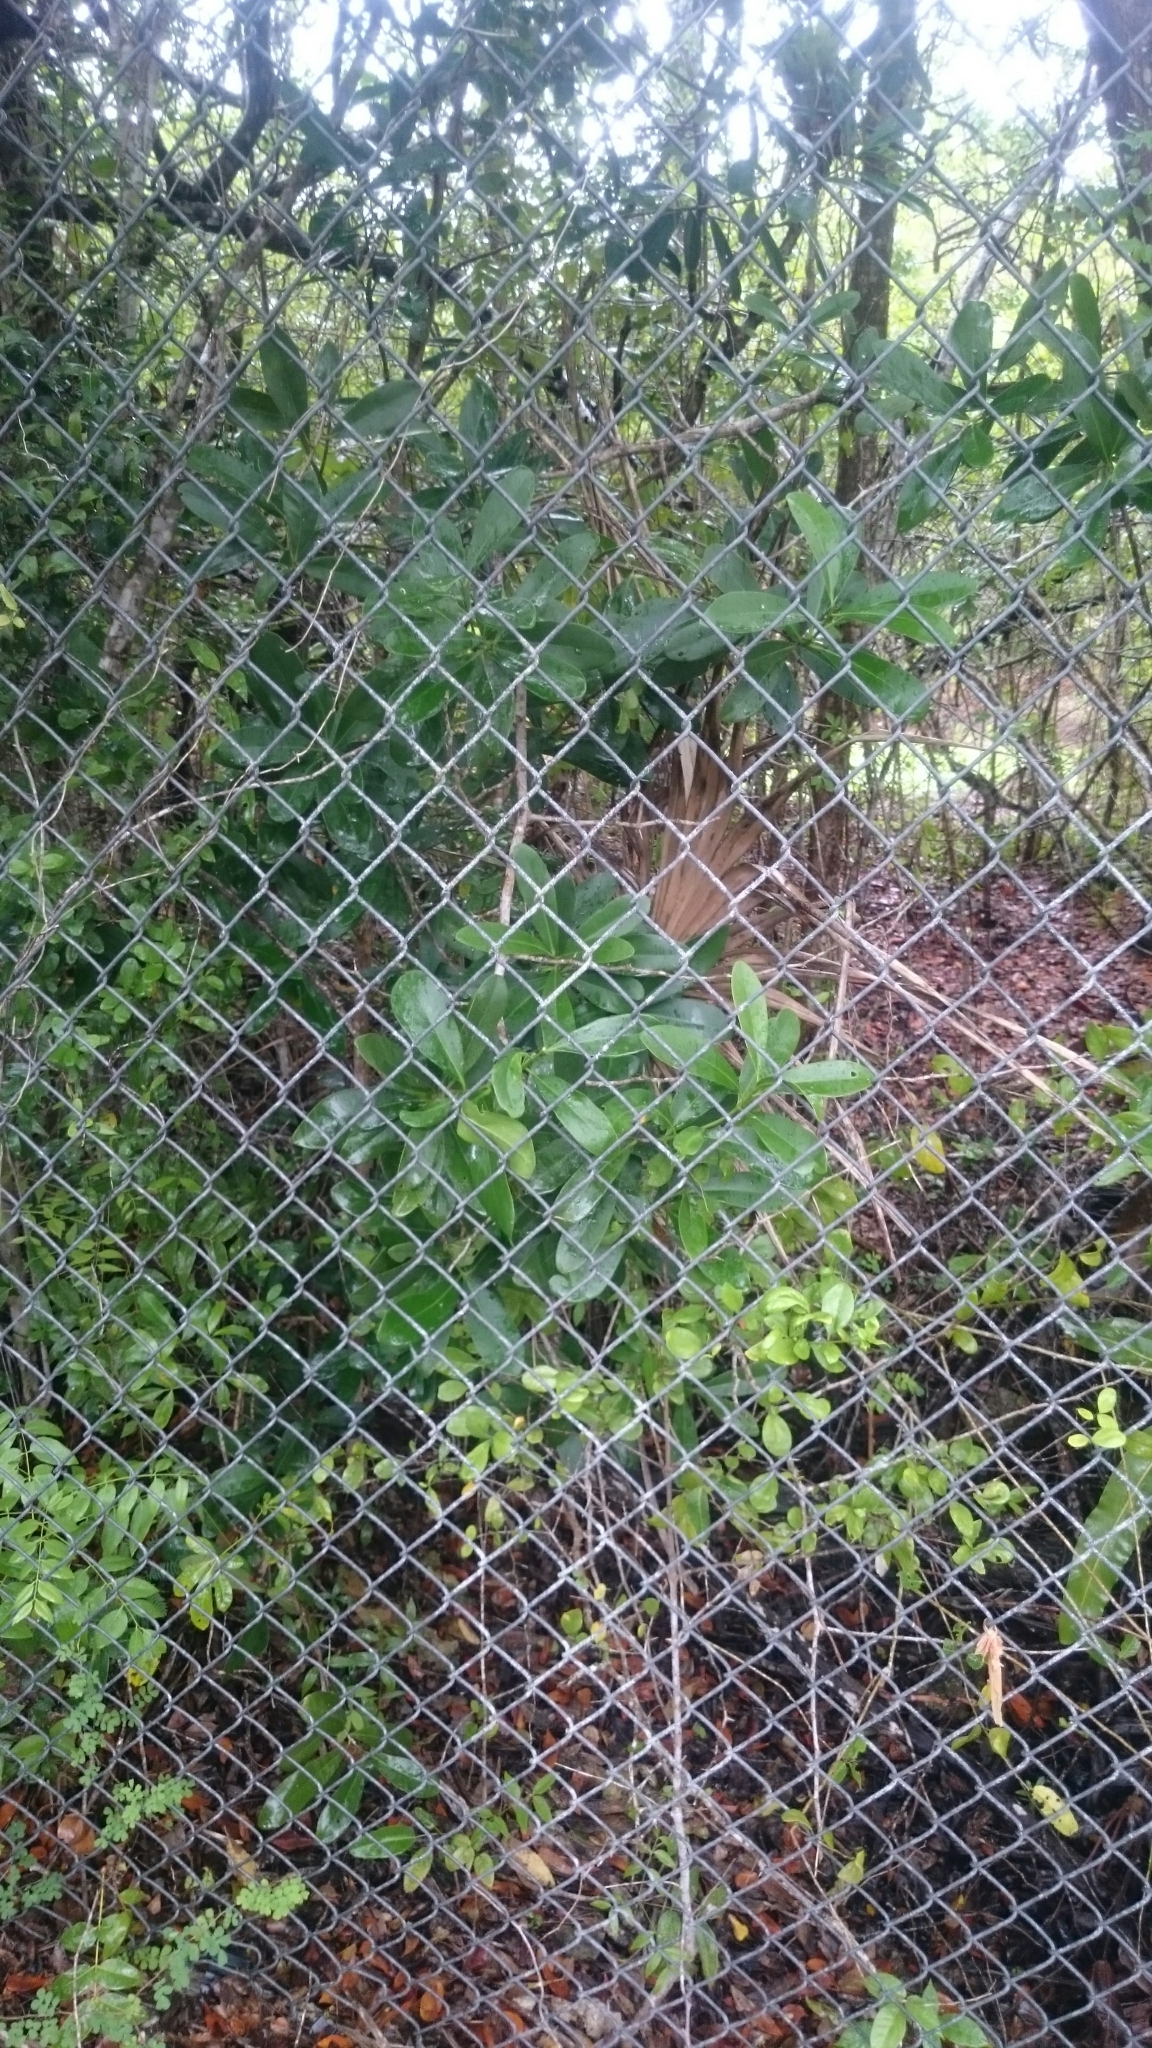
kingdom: Plantae
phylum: Tracheophyta
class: Magnoliopsida
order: Canellales
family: Canellaceae
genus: Canella
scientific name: Canella winterana
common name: Canella
